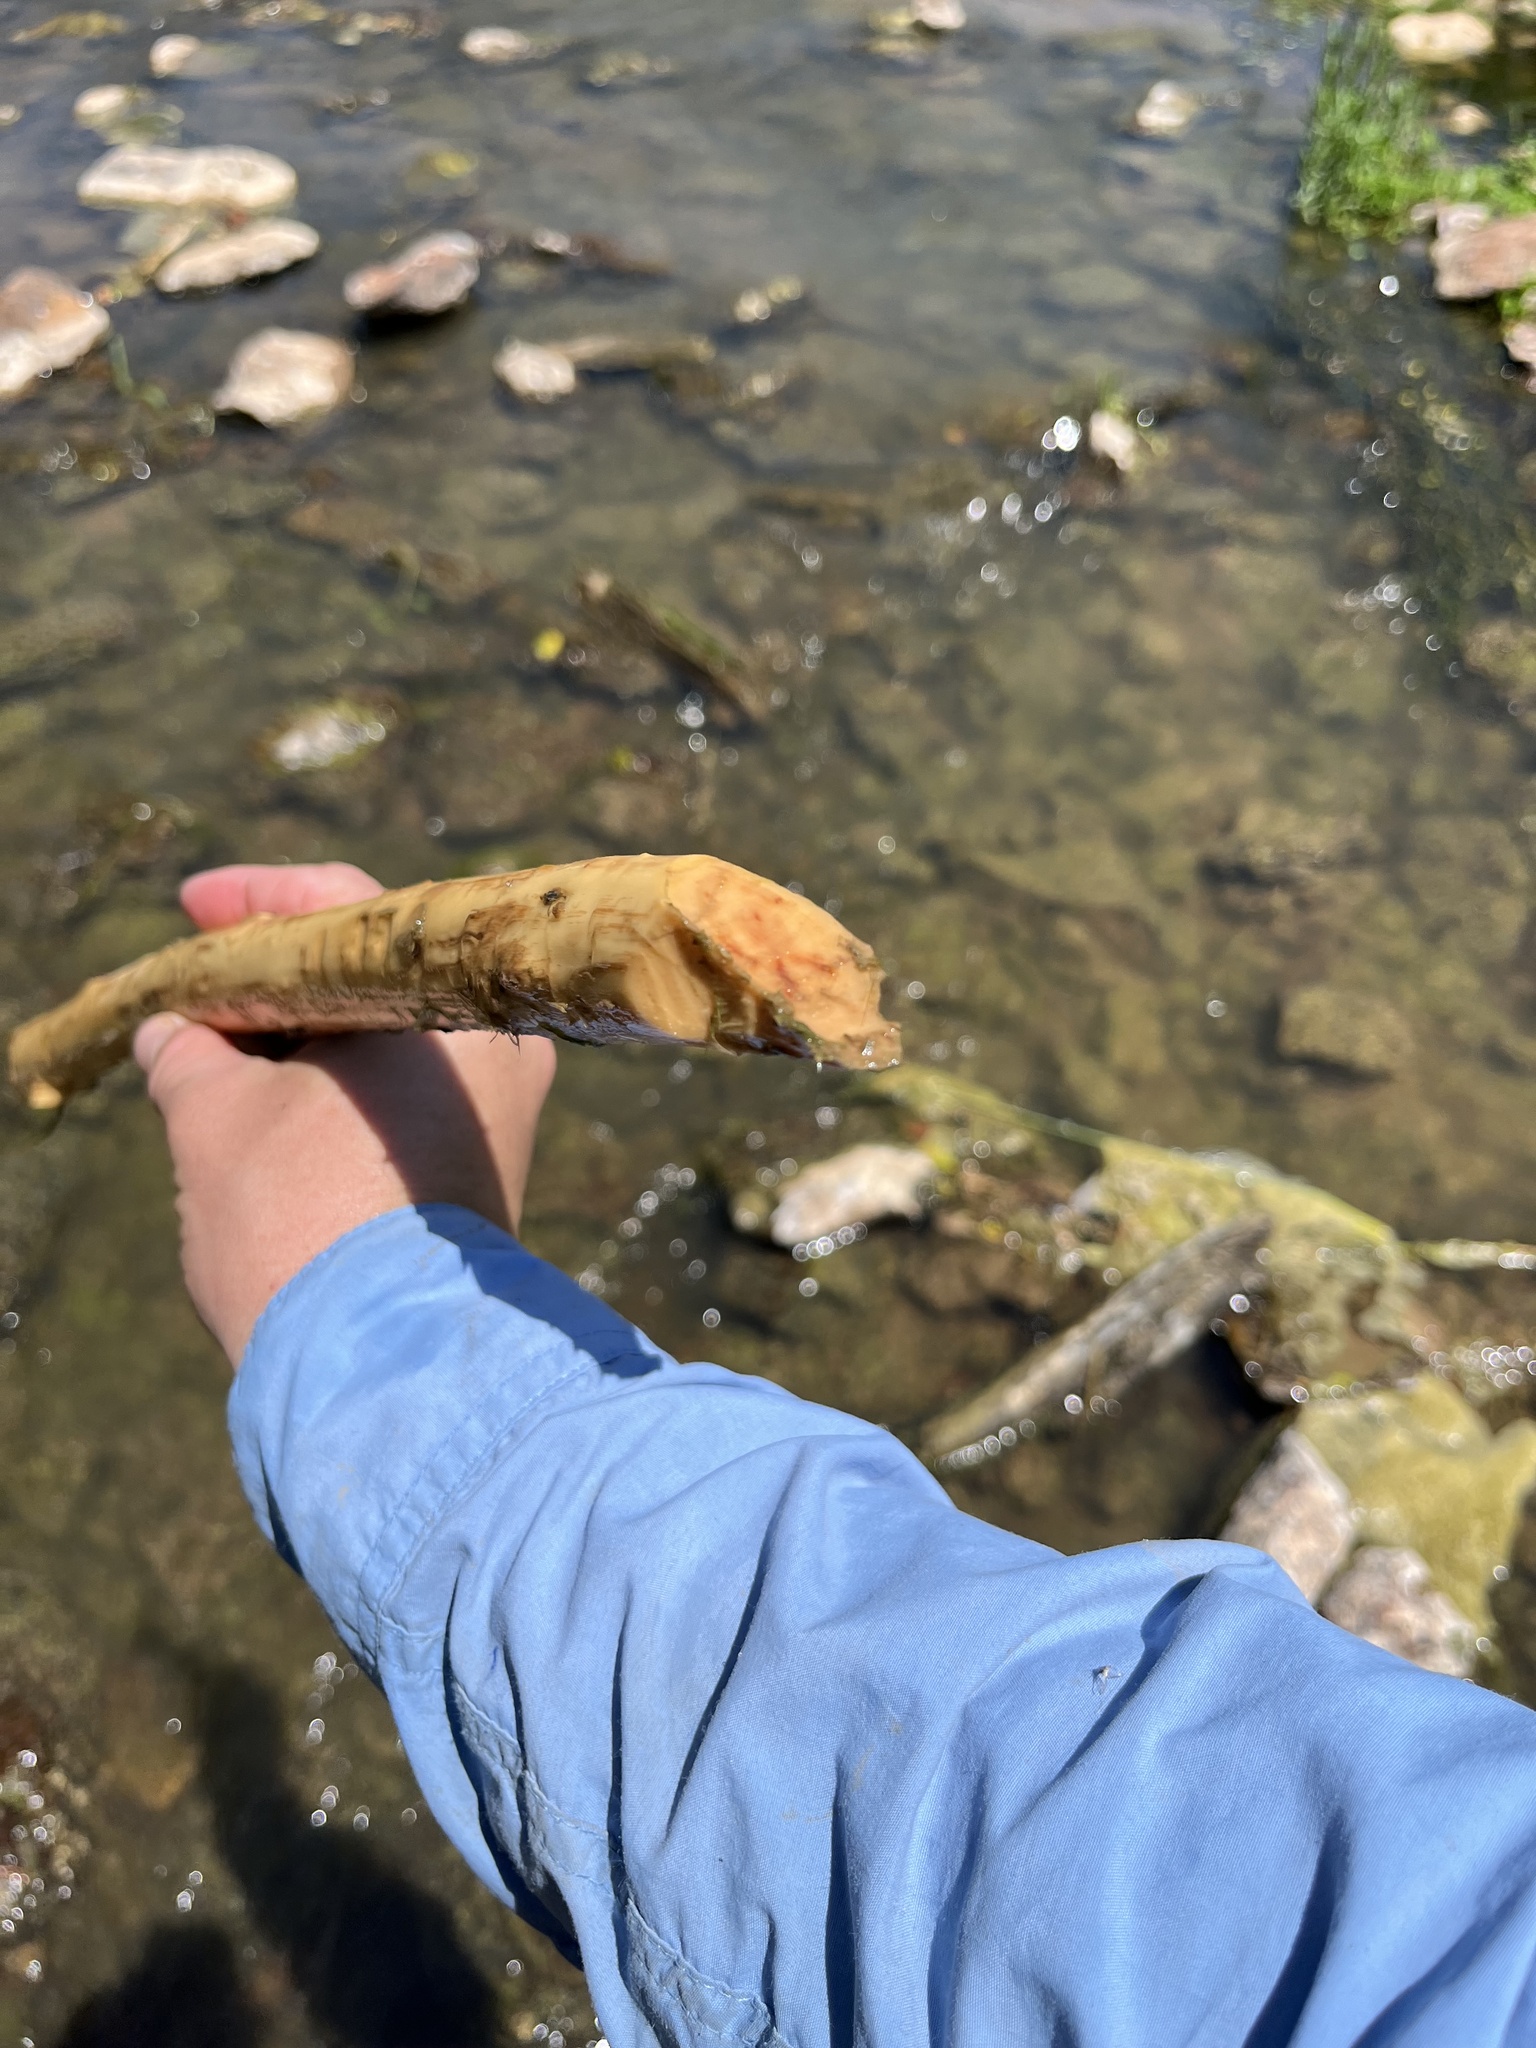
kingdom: Animalia
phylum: Chordata
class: Mammalia
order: Rodentia
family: Castoridae
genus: Castor
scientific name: Castor canadensis
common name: American beaver
